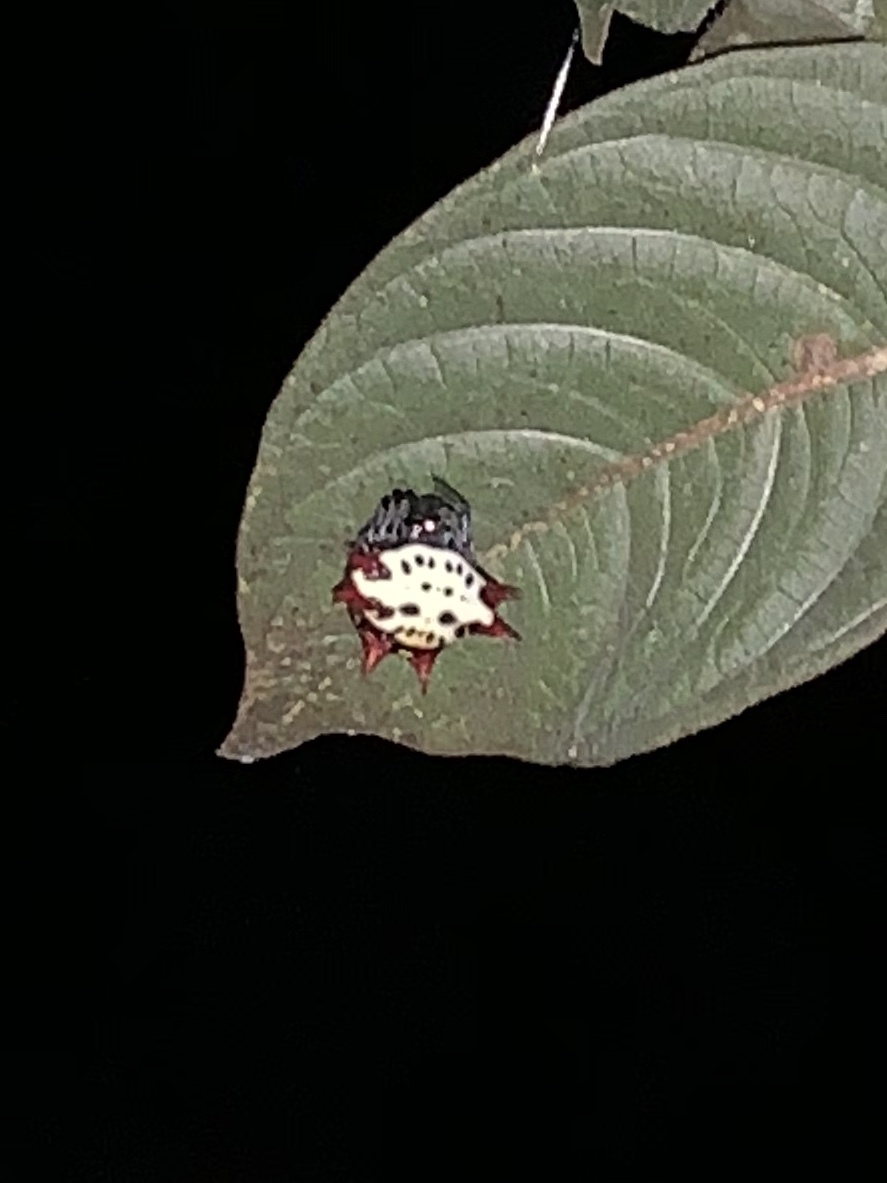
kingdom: Animalia
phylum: Arthropoda
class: Arachnida
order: Araneae
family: Araneidae
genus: Gasteracantha
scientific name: Gasteracantha cancriformis
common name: Orb weavers
